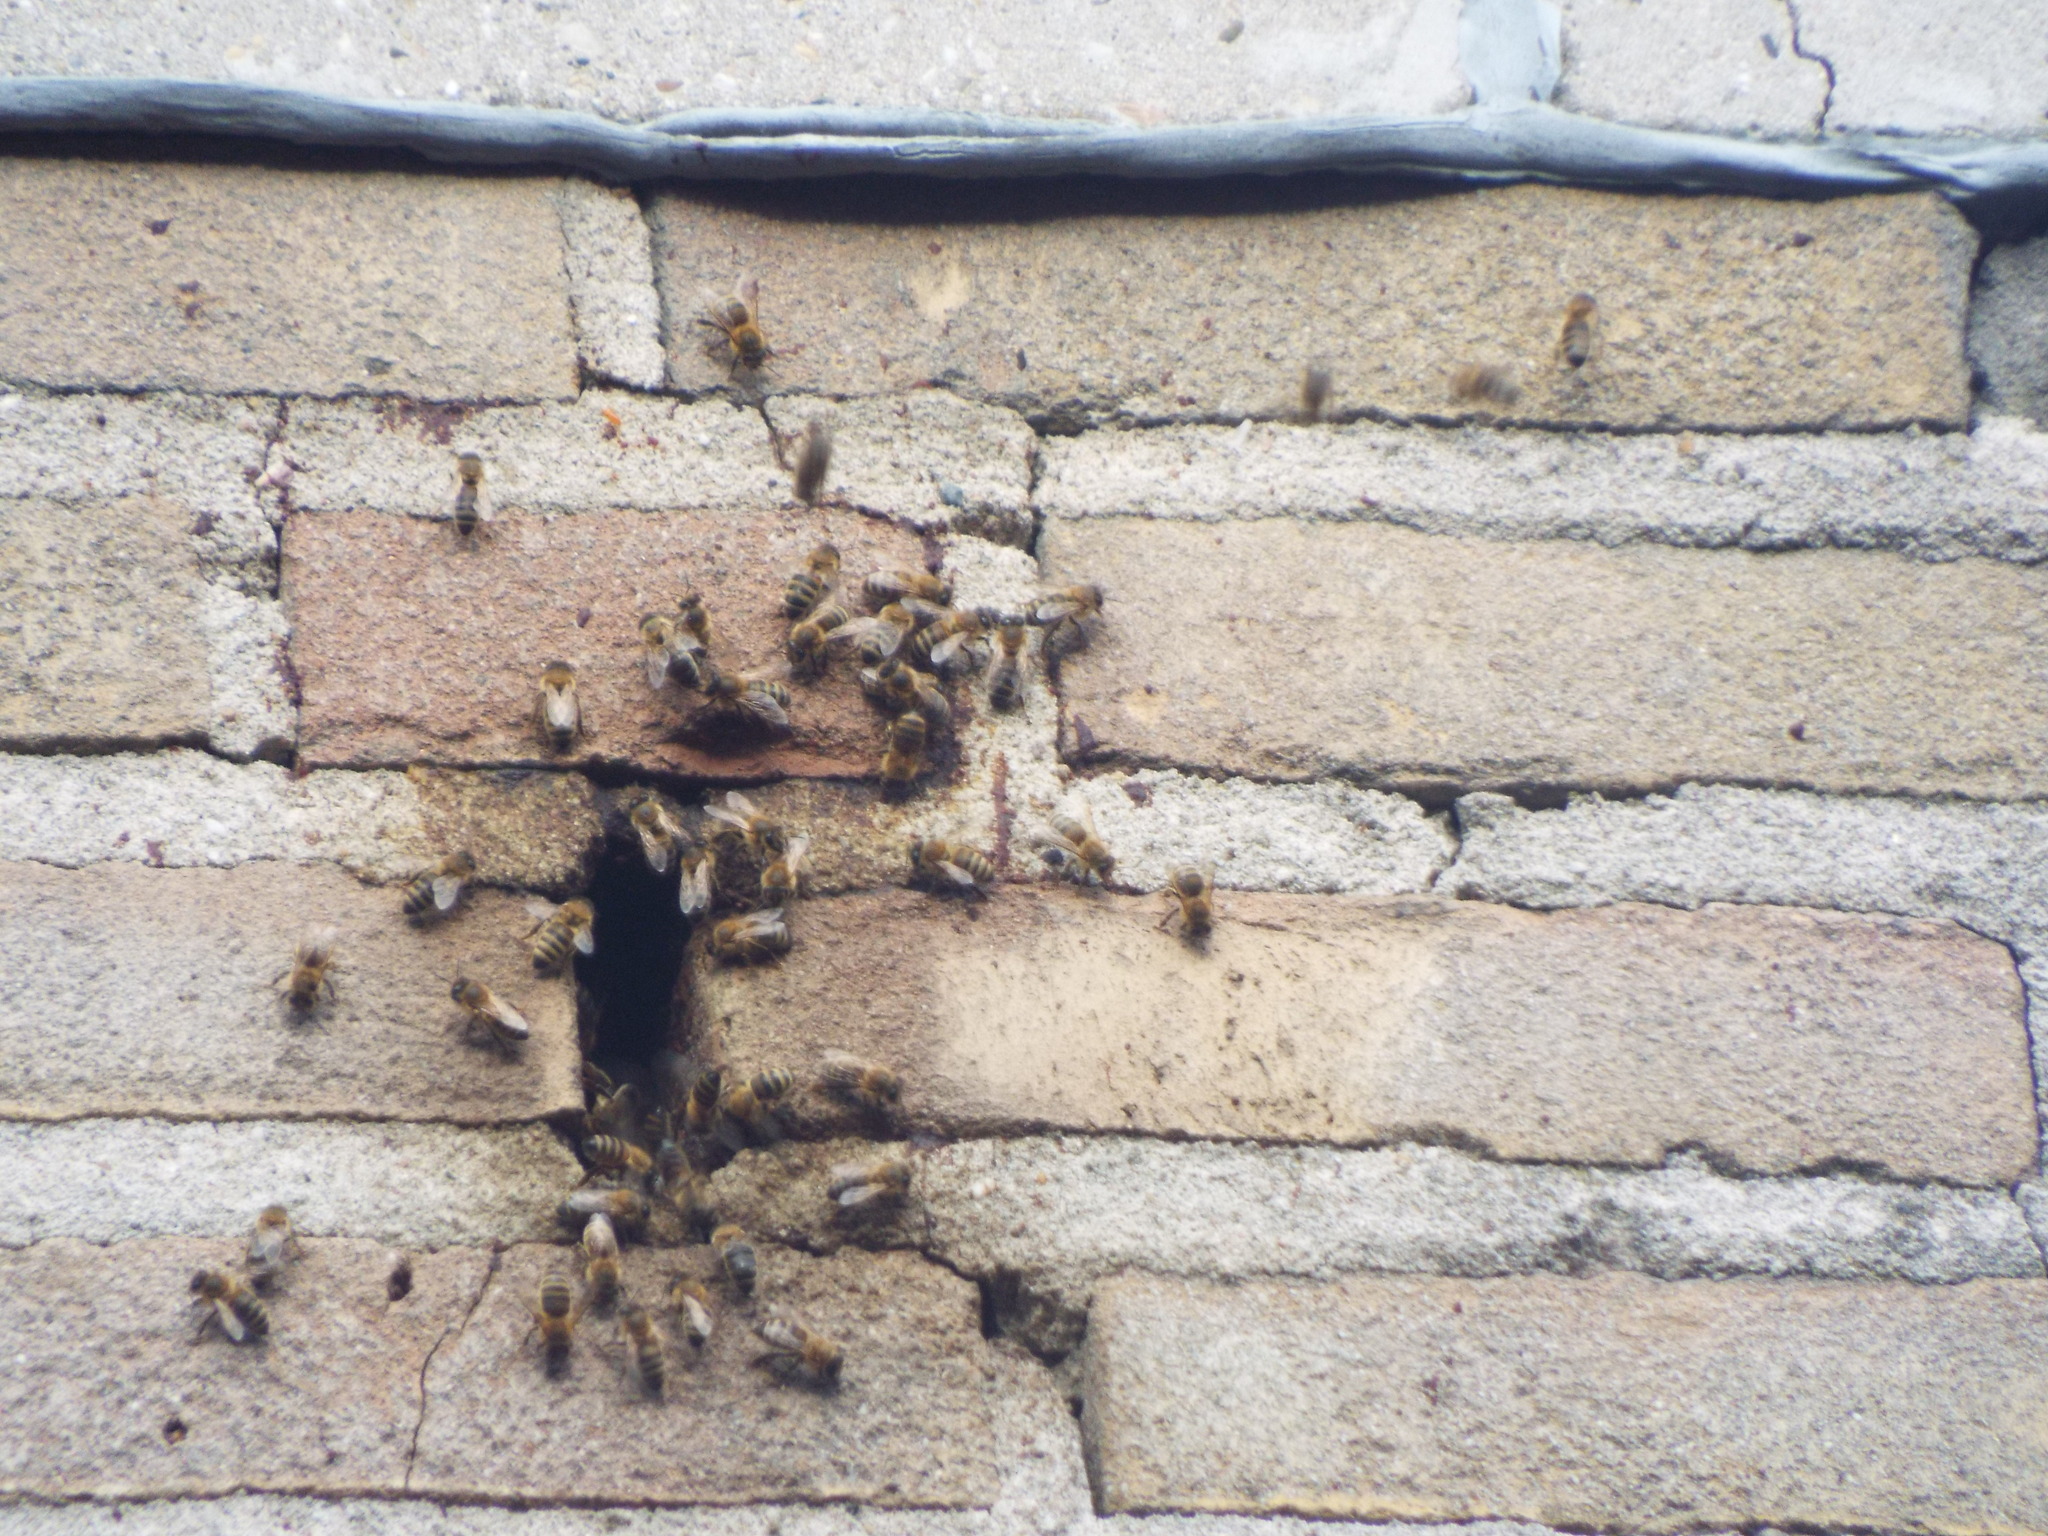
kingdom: Animalia
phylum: Arthropoda
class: Insecta
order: Hymenoptera
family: Apidae
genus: Apis
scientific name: Apis mellifera
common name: Honey bee
